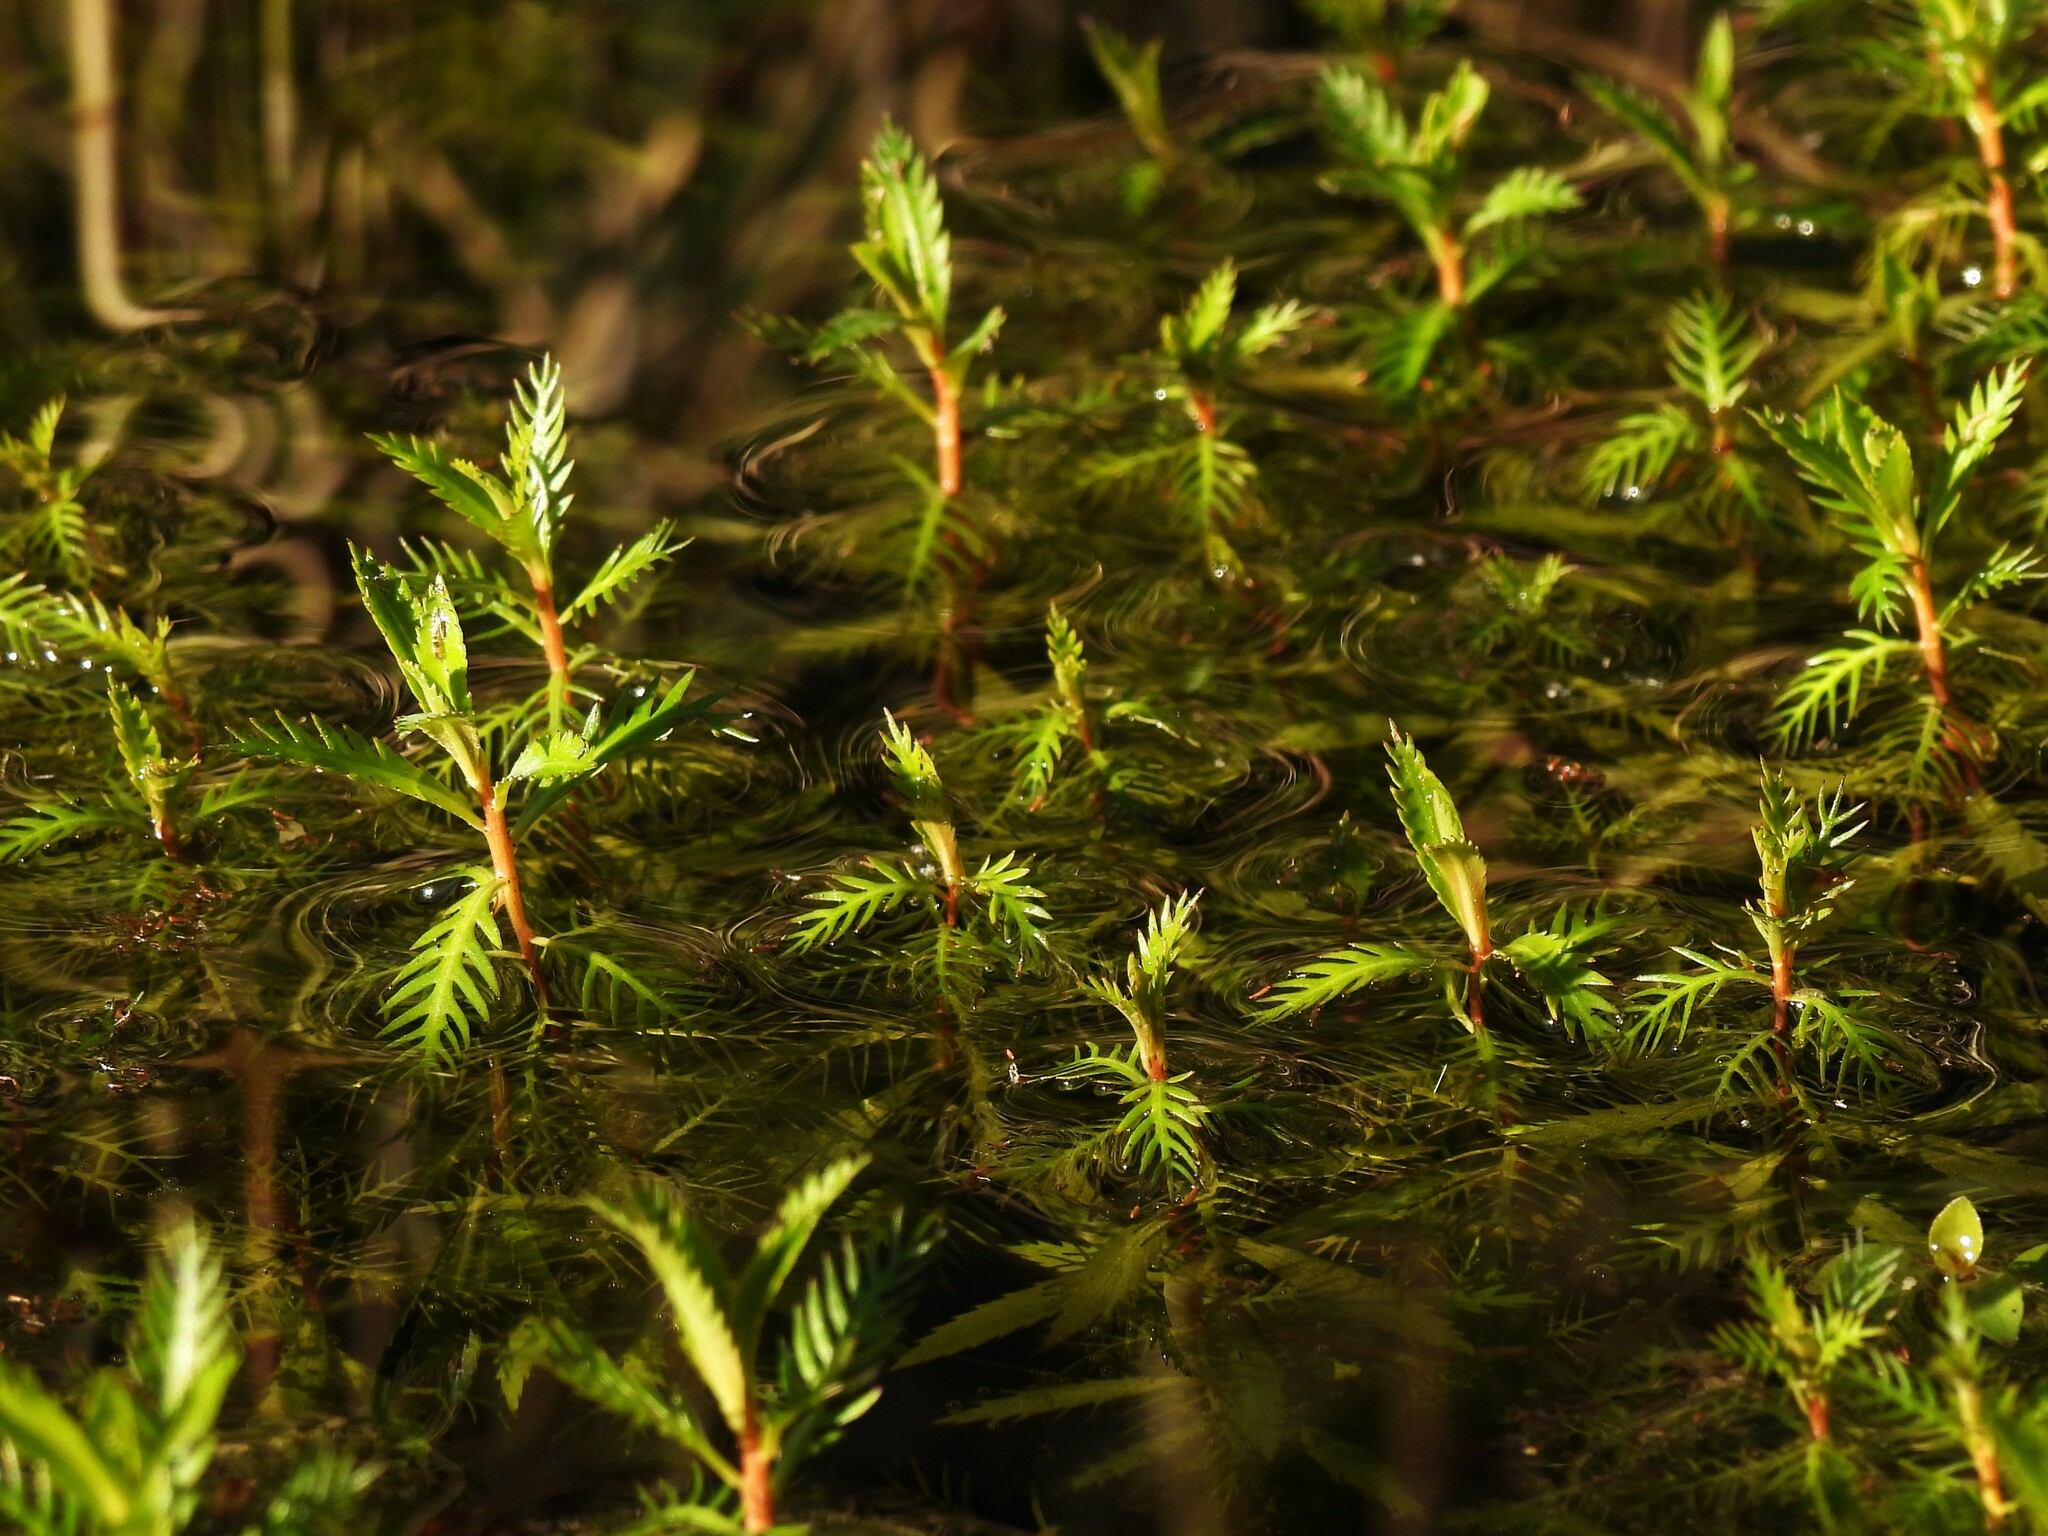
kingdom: Plantae
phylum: Tracheophyta
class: Magnoliopsida
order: Saxifragales
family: Haloragaceae
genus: Proserpinaca
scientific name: Proserpinaca palustris
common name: Marsh mermaidweed
